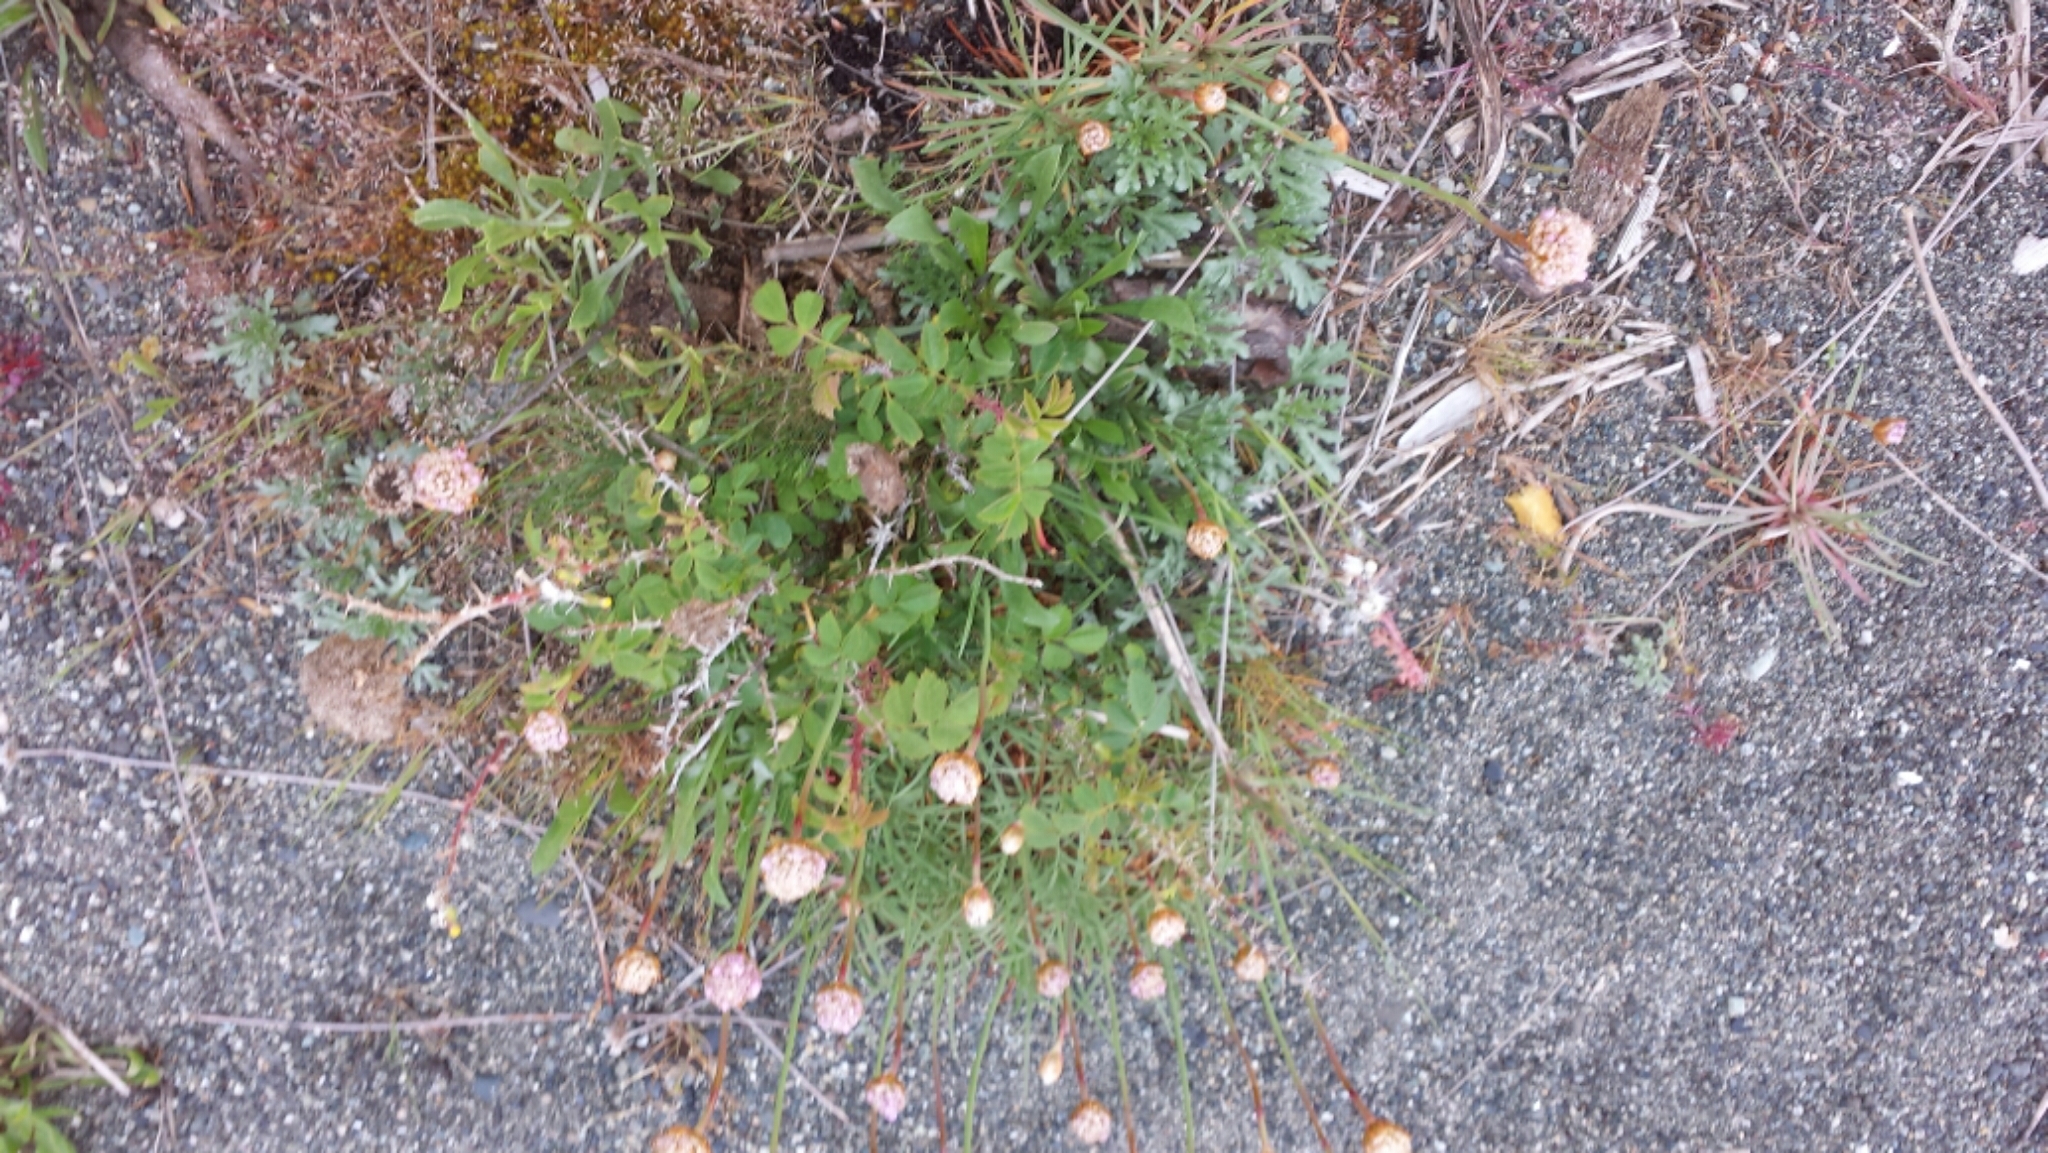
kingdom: Plantae
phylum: Tracheophyta
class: Magnoliopsida
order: Caryophyllales
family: Plumbaginaceae
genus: Armeria
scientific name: Armeria maritima
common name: Thrift
